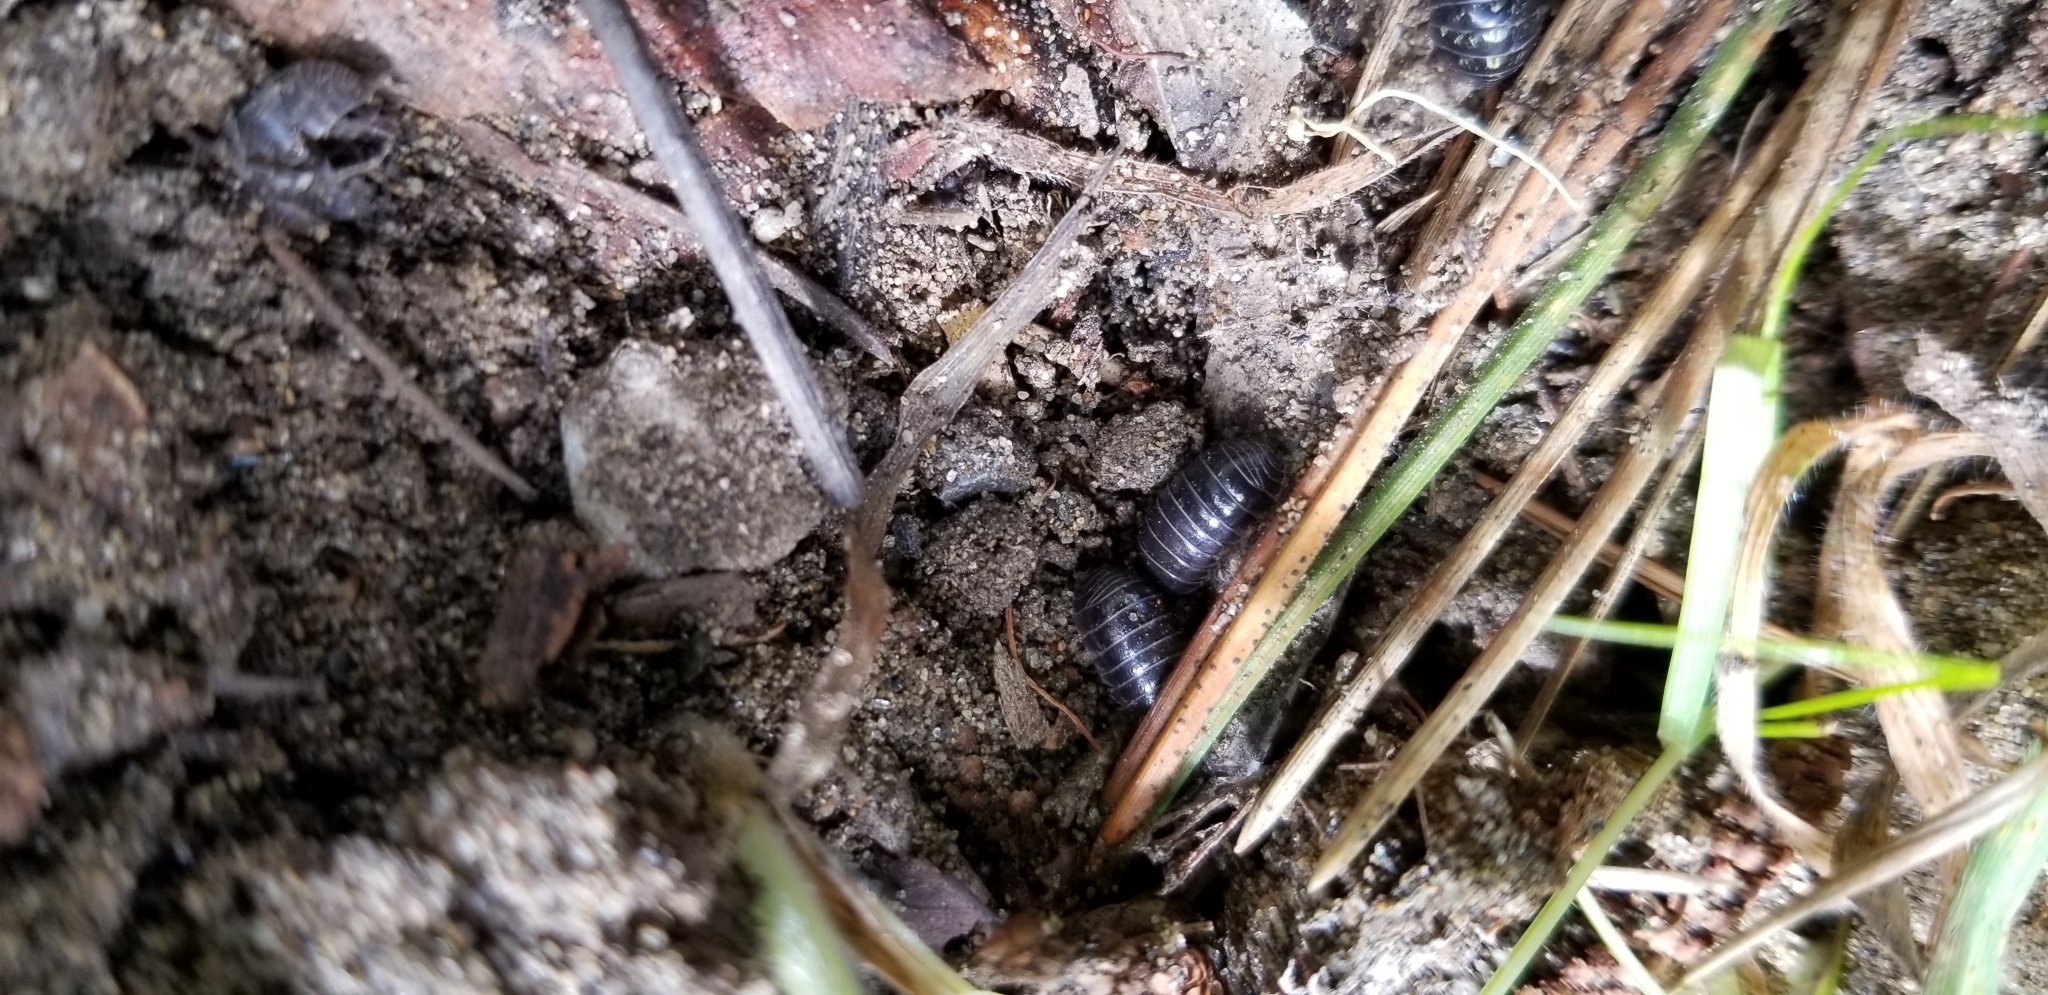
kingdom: Animalia
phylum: Arthropoda
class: Malacostraca
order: Isopoda
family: Armadillidiidae
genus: Armadillidium
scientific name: Armadillidium vulgare
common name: Common pill woodlouse
